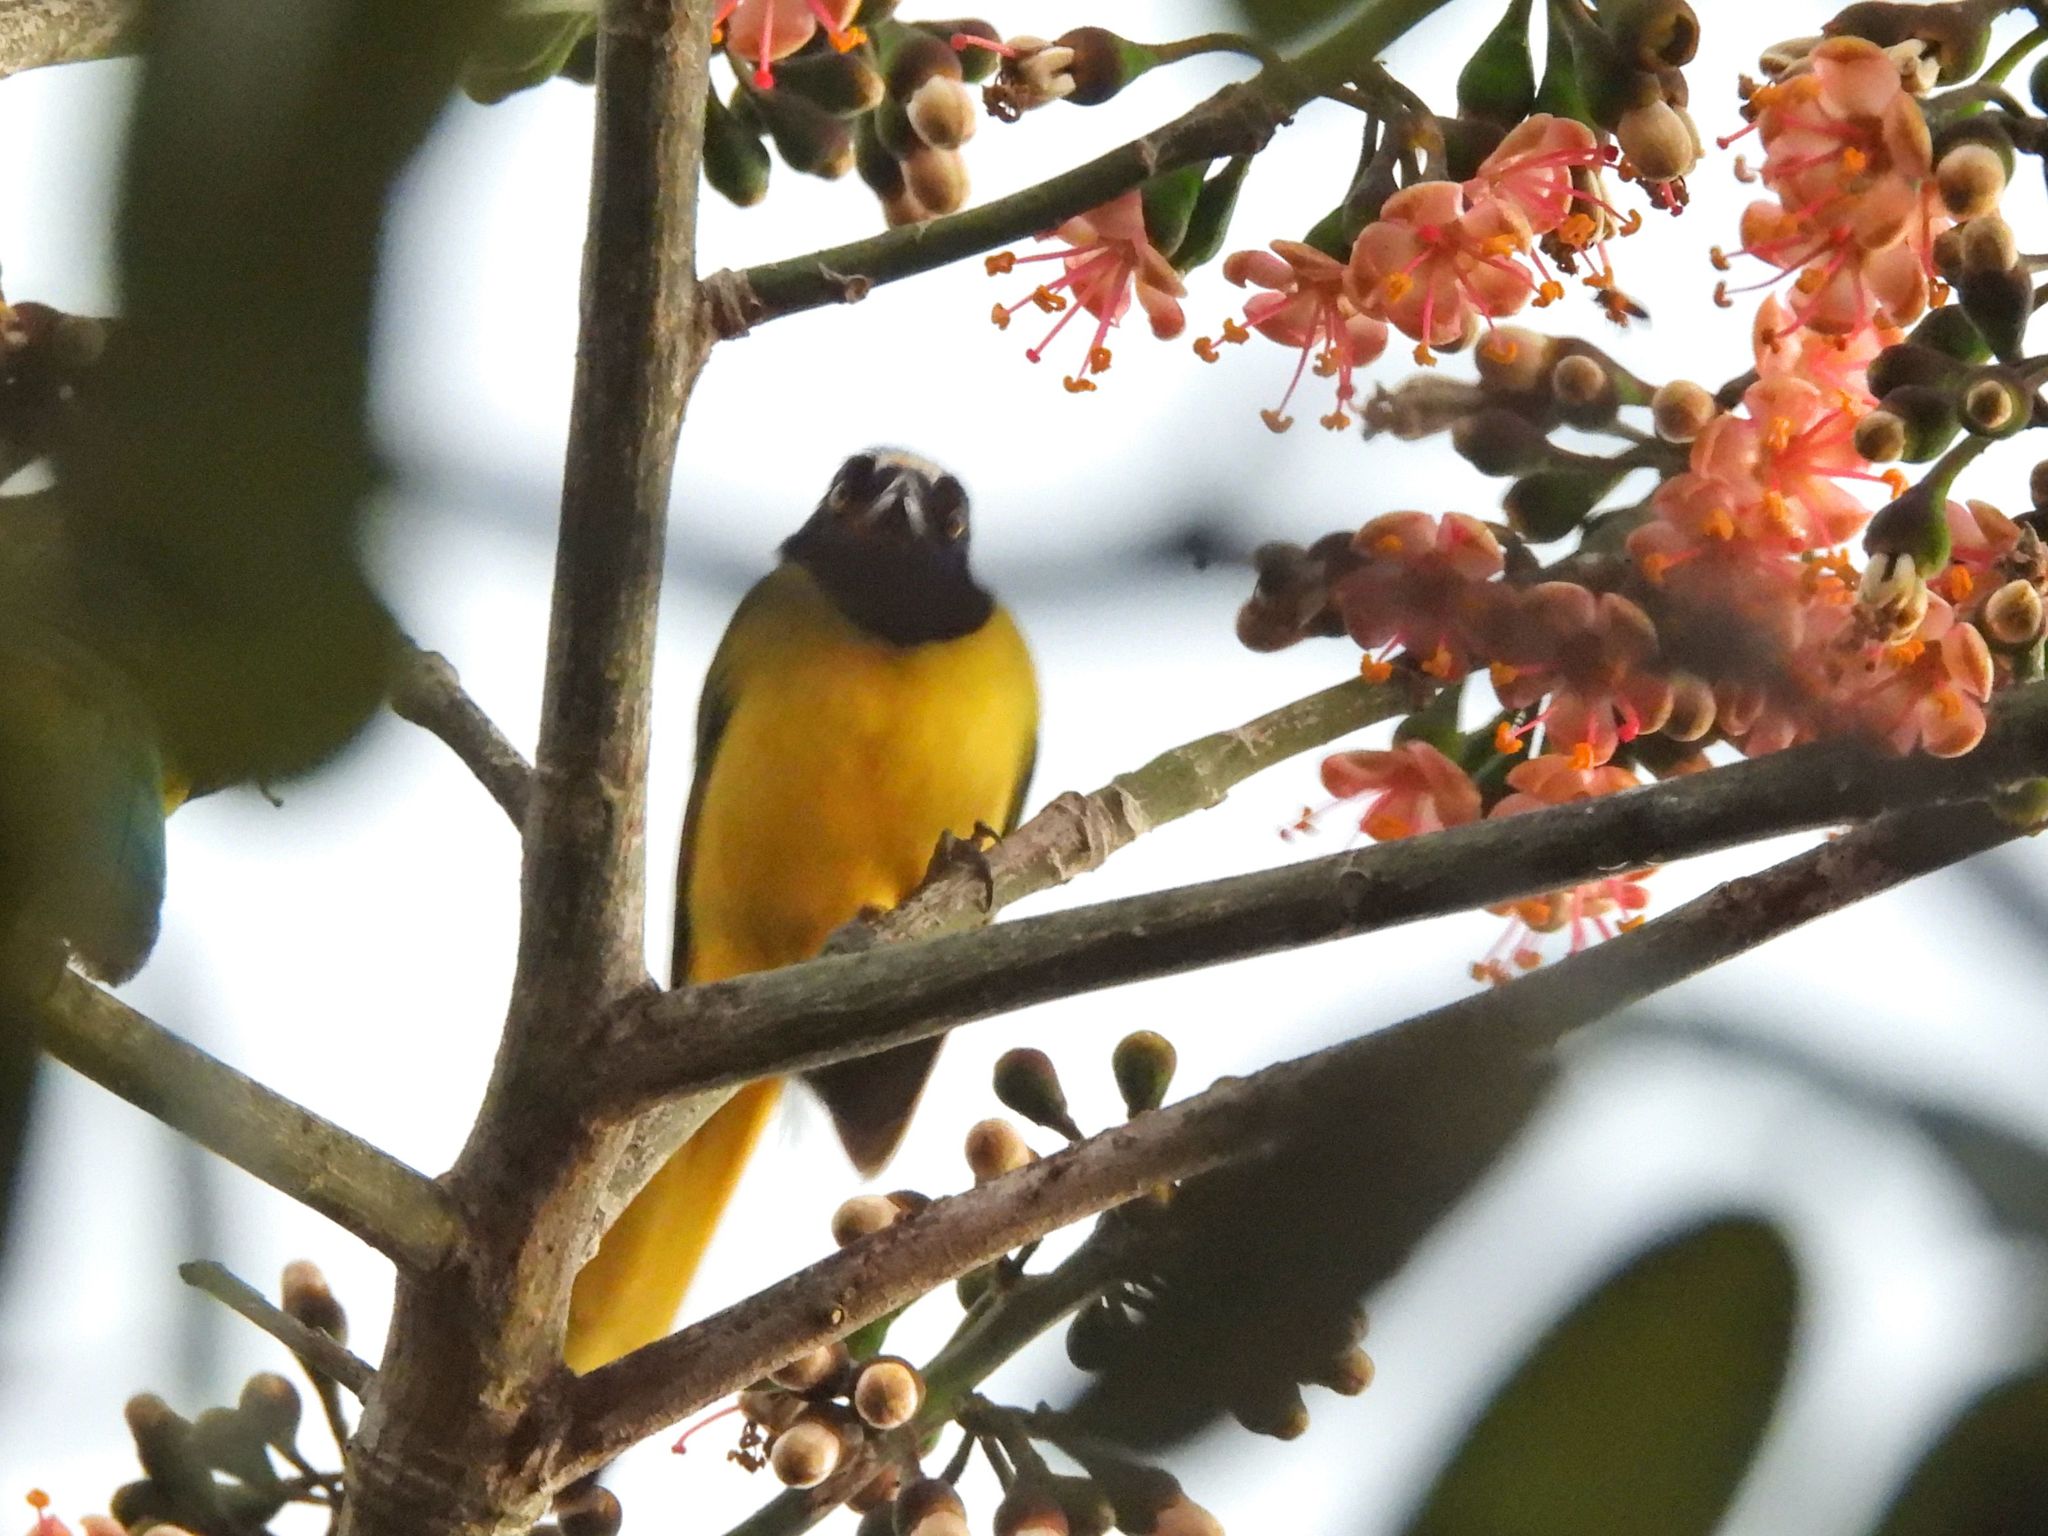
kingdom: Animalia
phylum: Chordata
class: Aves
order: Passeriformes
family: Corvidae
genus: Cyanocorax
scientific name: Cyanocorax yncas
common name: Green jay
